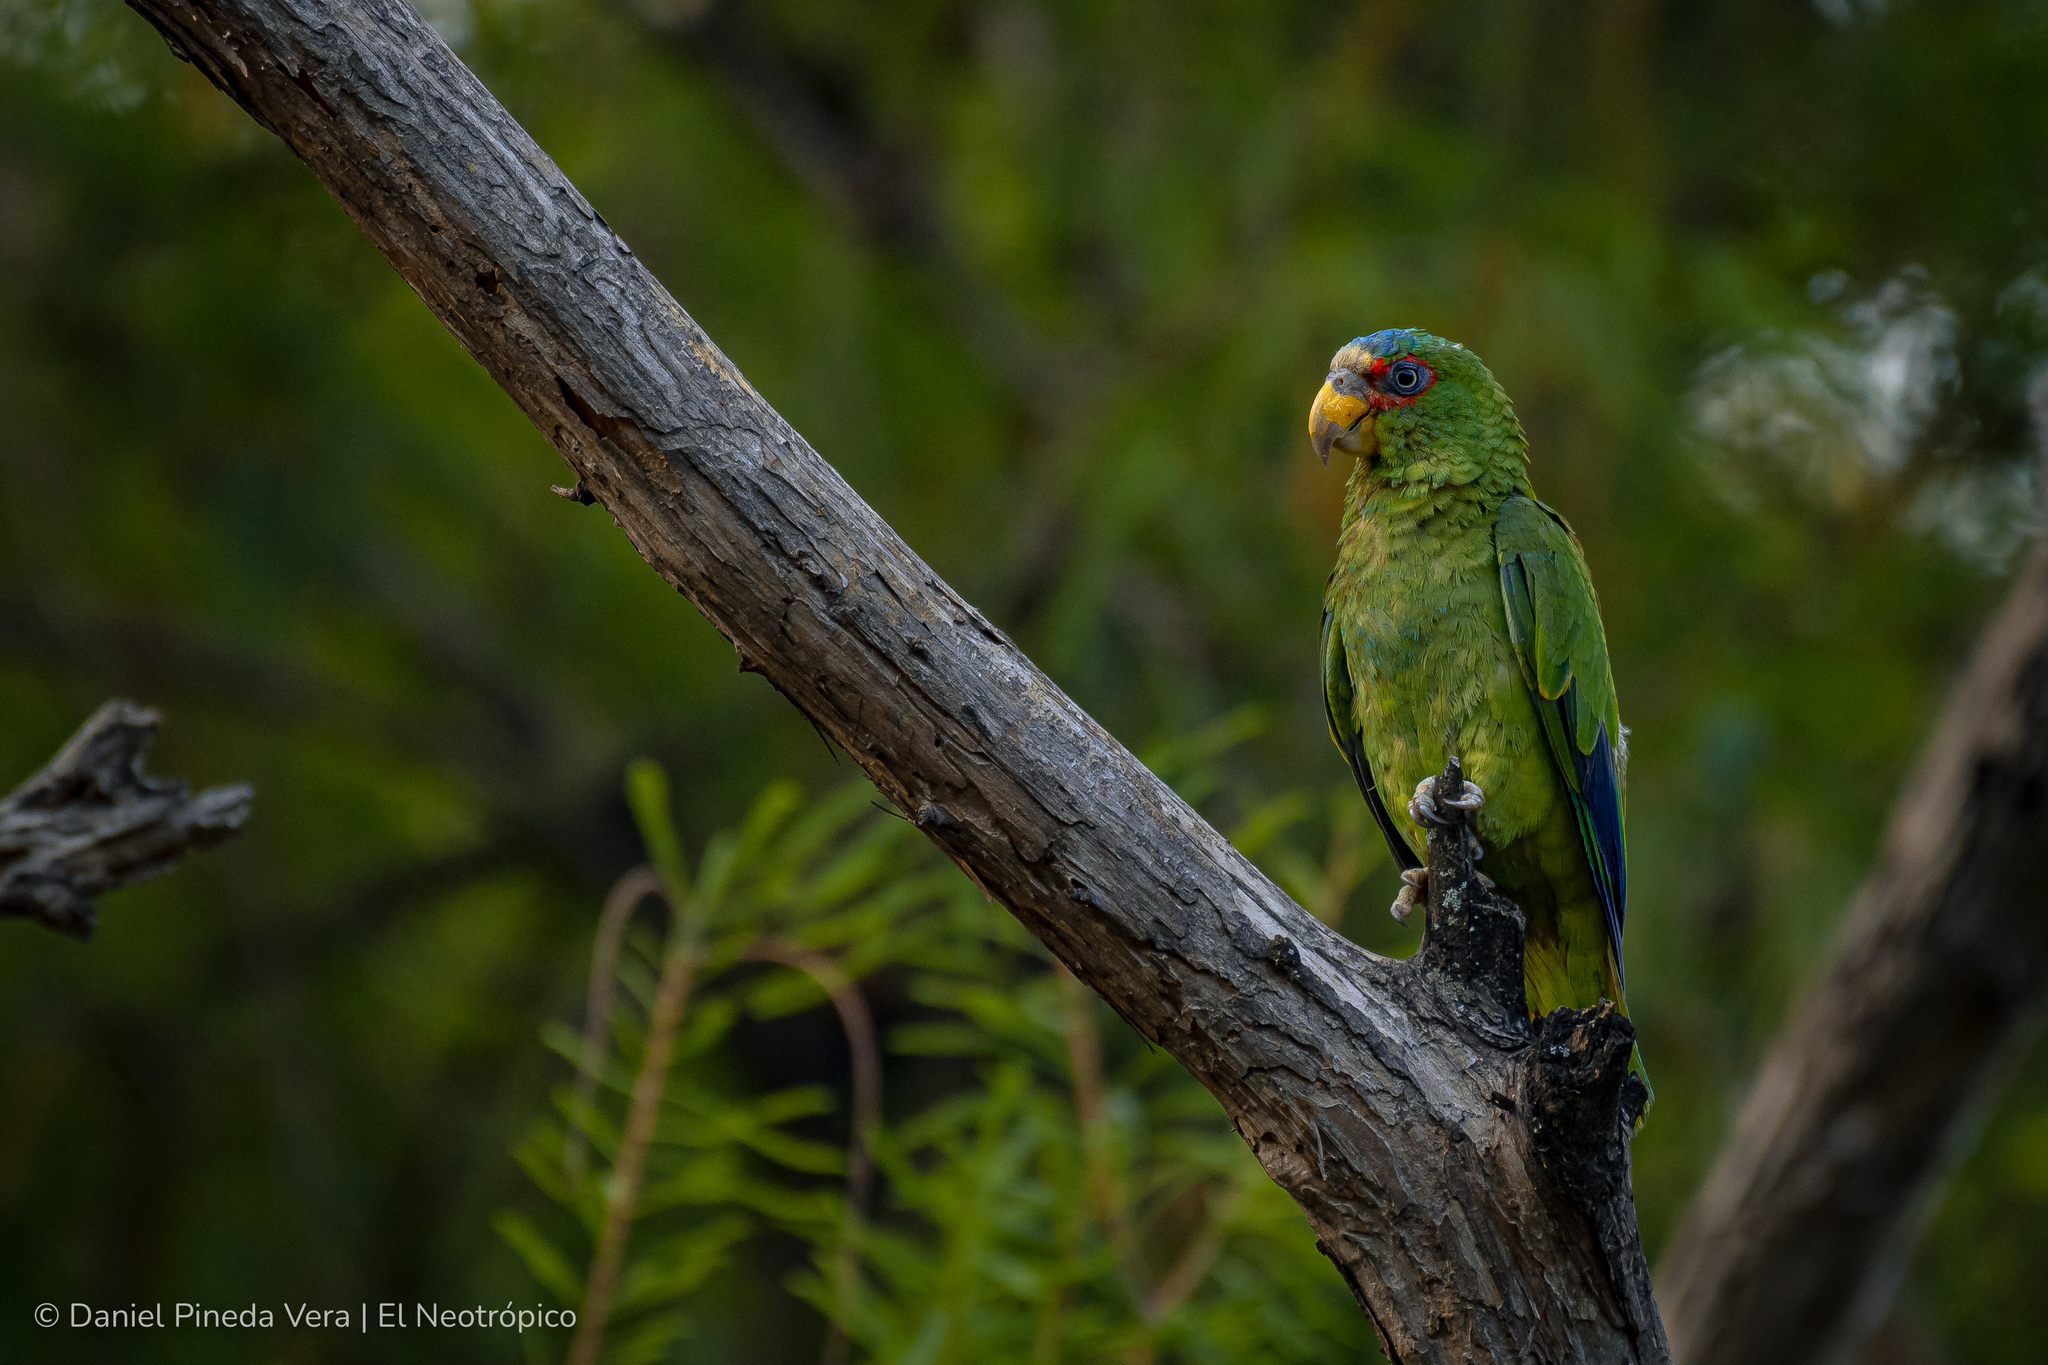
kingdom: Animalia
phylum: Chordata
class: Aves
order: Psittaciformes
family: Psittacidae
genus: Amazona
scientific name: Amazona albifrons
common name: White-fronted amazon
